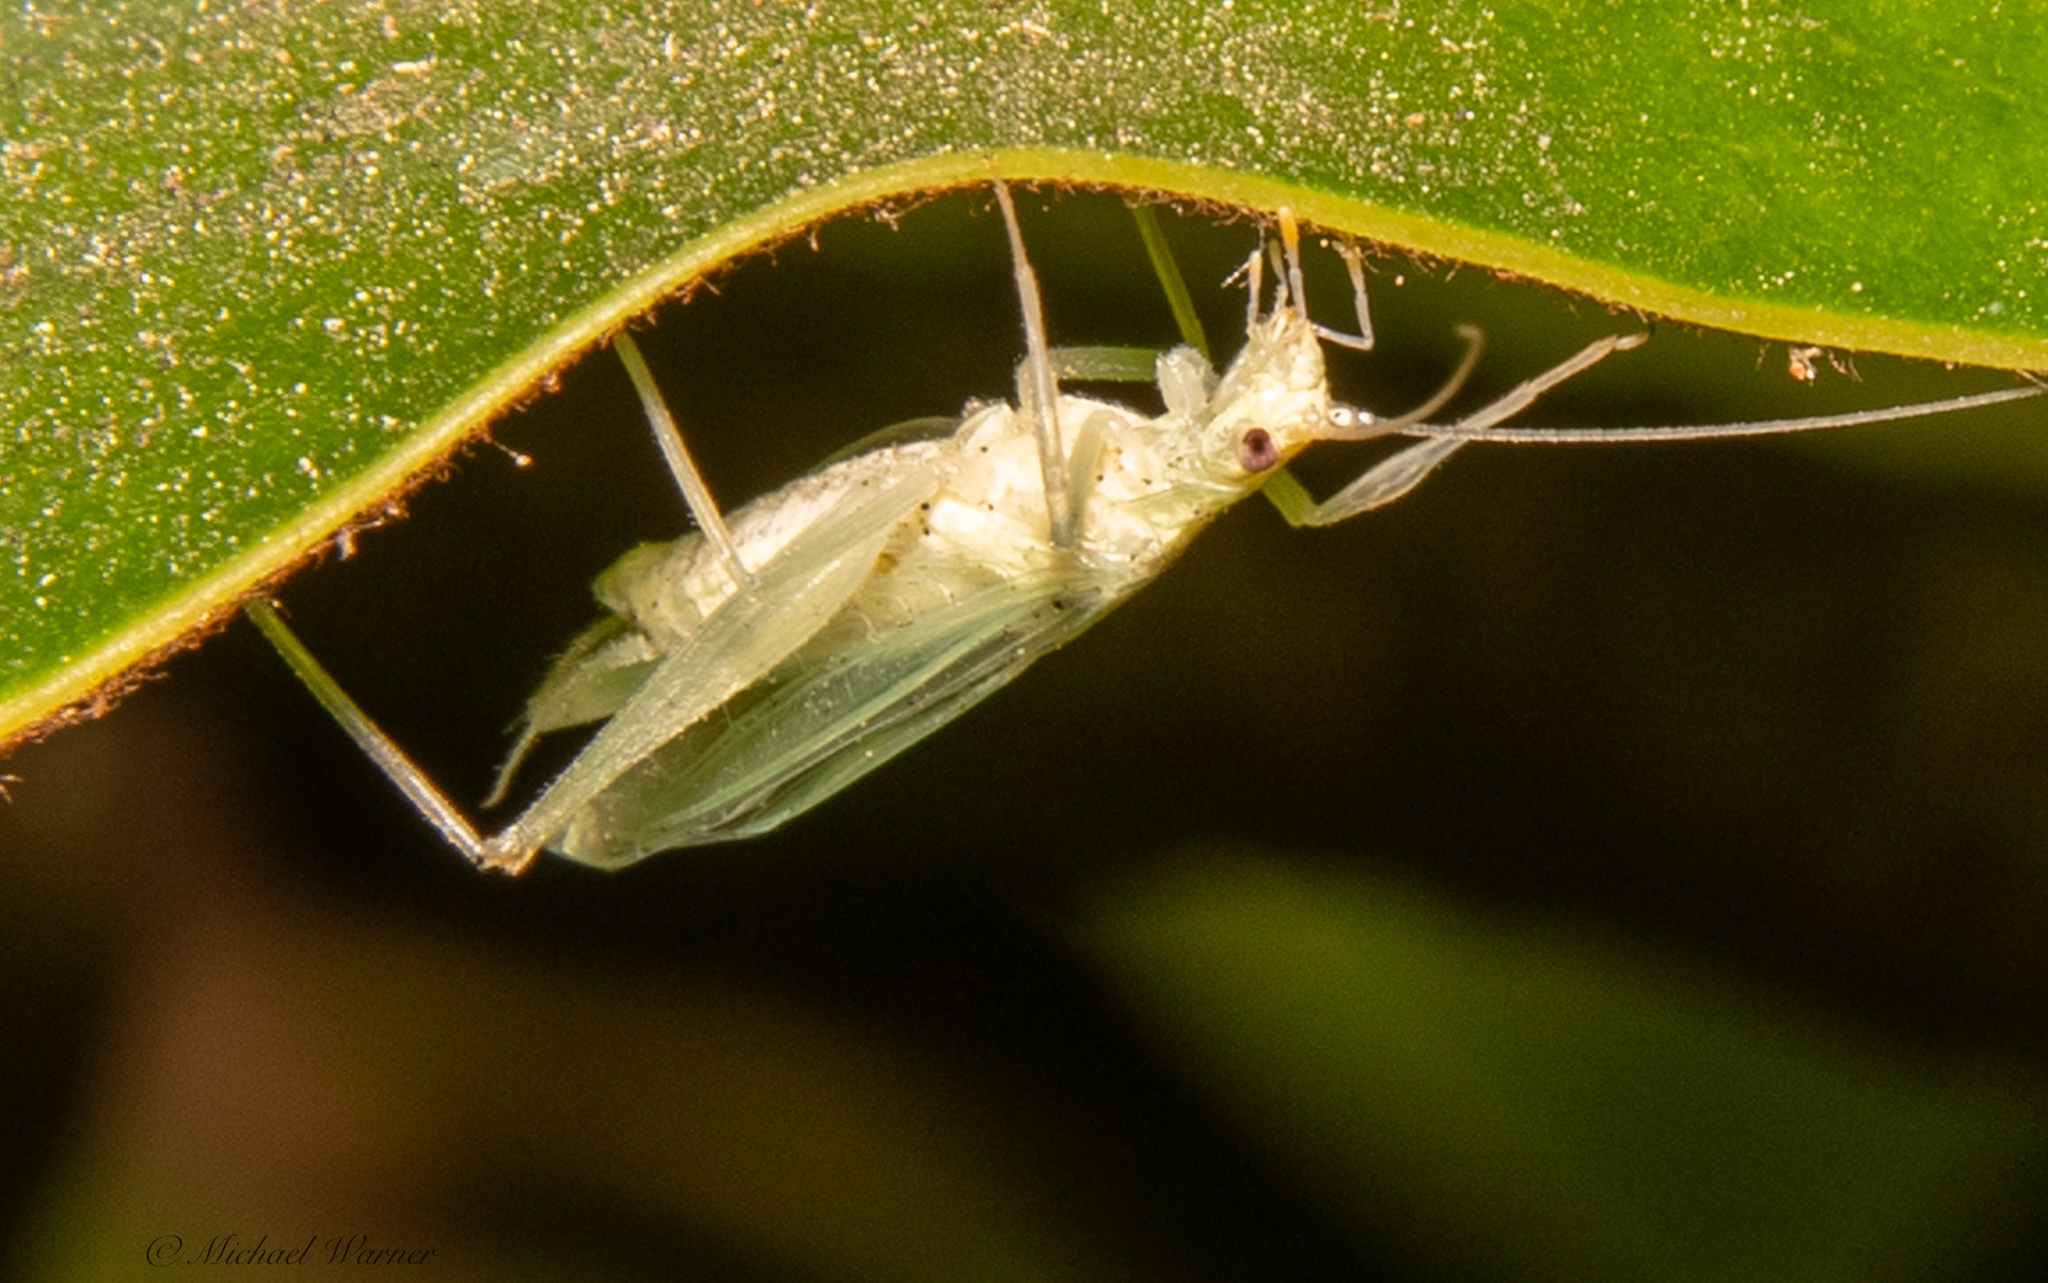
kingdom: Animalia
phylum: Arthropoda
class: Insecta
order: Orthoptera
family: Gryllidae
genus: Oecanthus
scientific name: Oecanthus rileyi
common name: Riley's tree cricket
